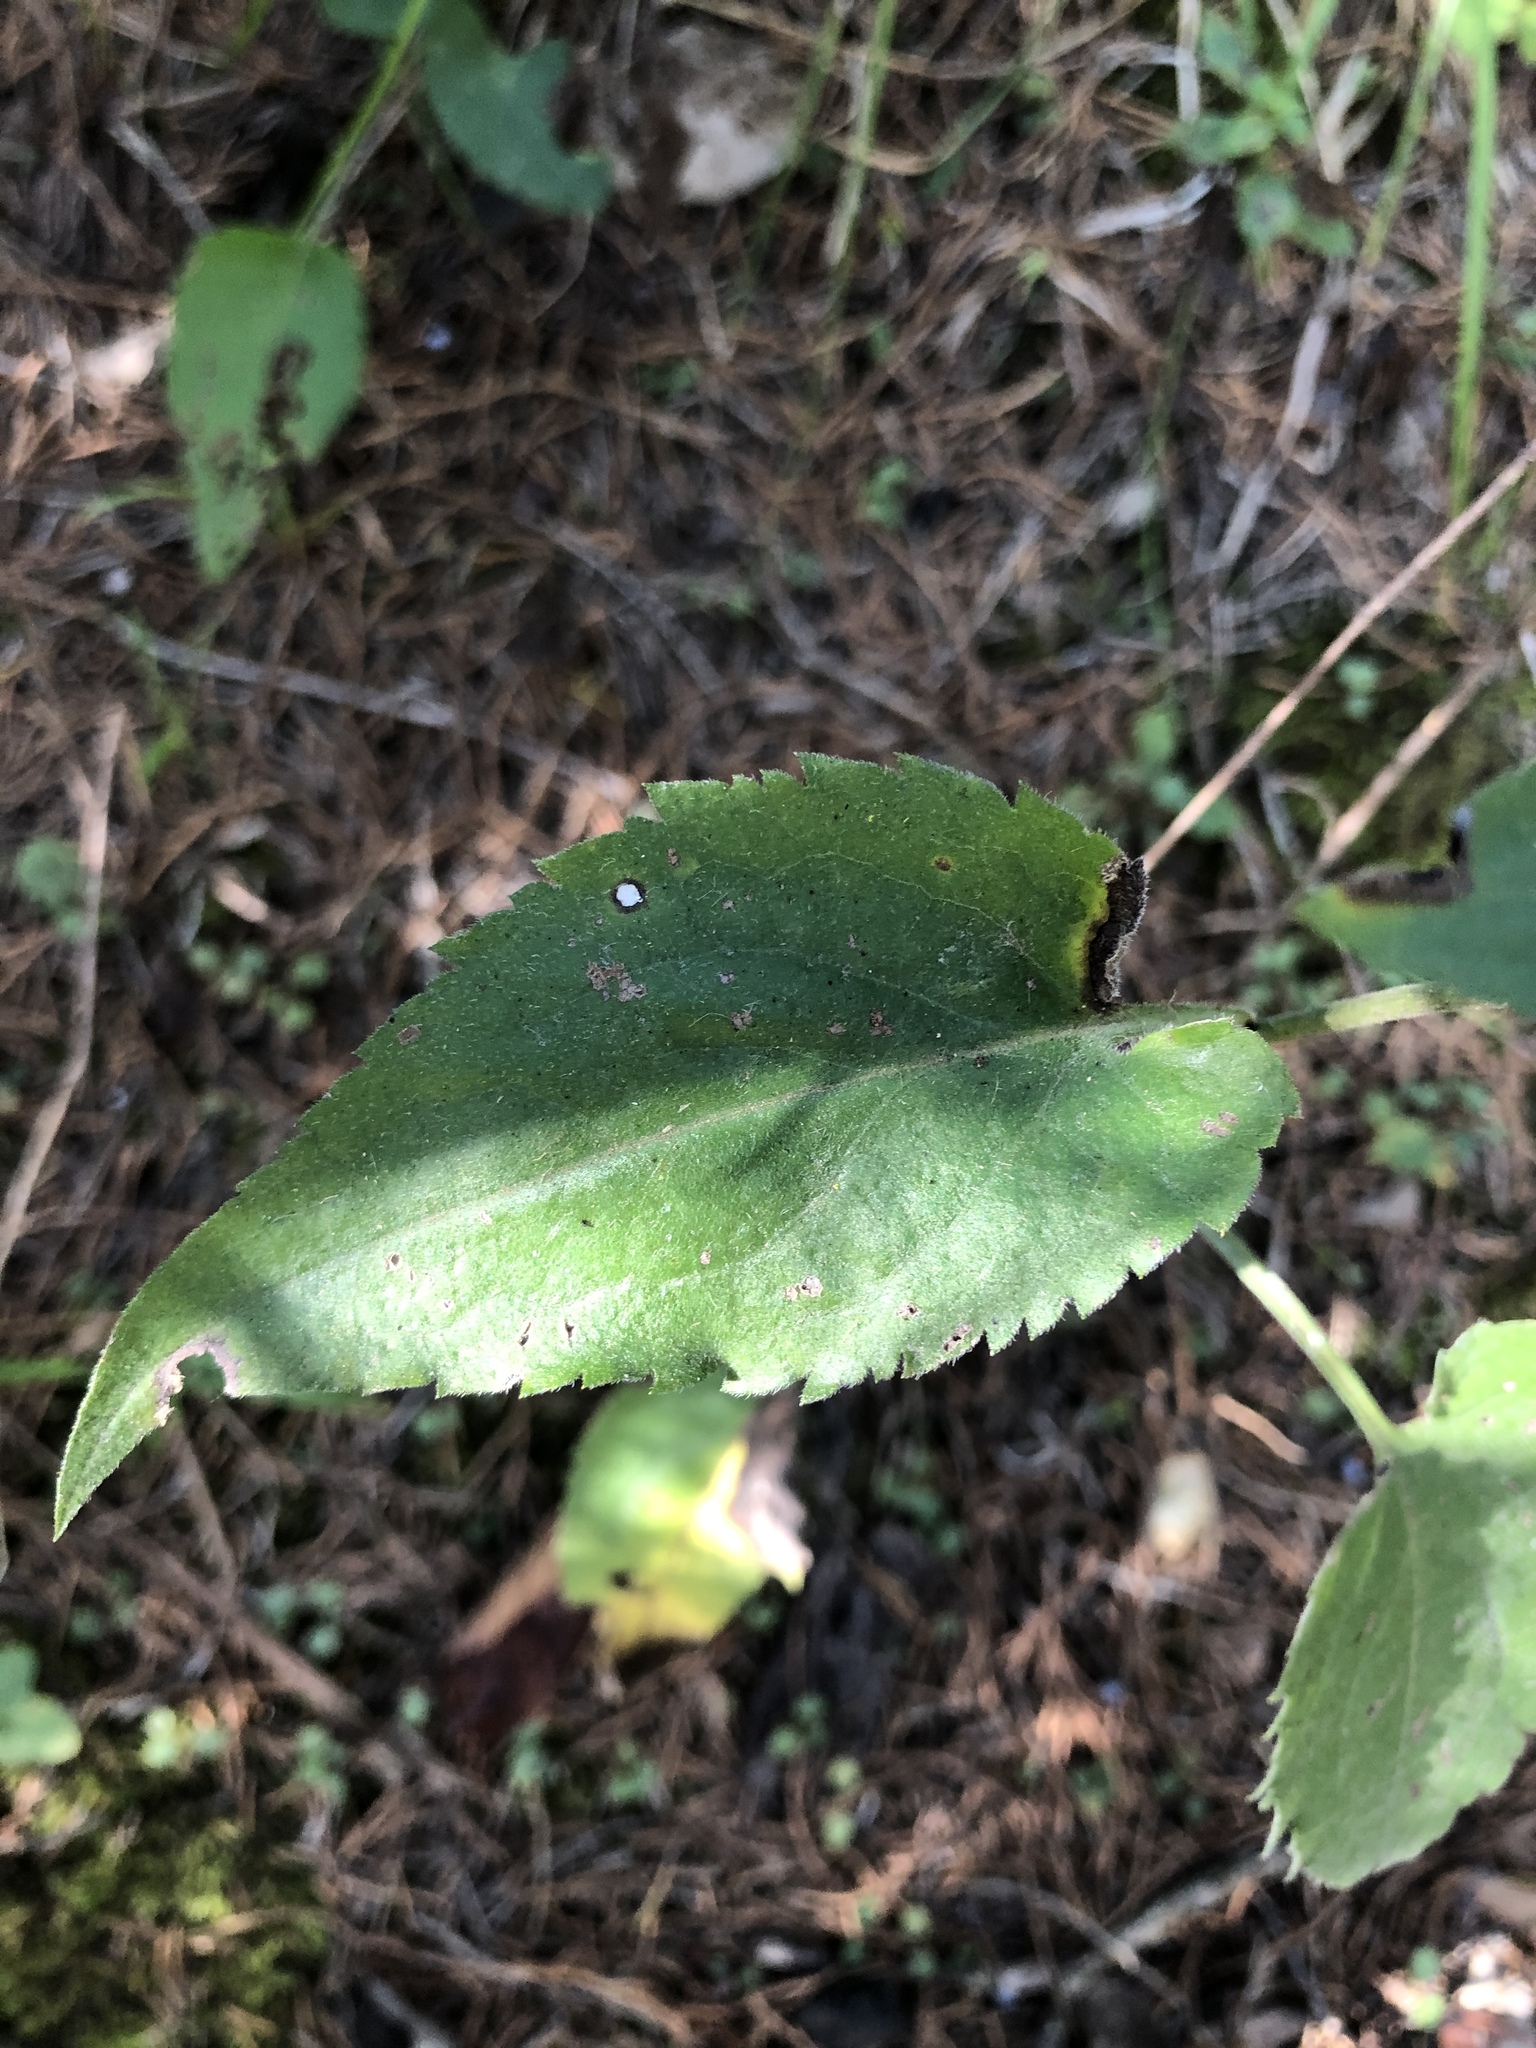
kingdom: Plantae
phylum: Tracheophyta
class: Magnoliopsida
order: Asterales
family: Asteraceae
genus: Symphyotrichum
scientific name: Symphyotrichum drummondii
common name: Drummond's aster
